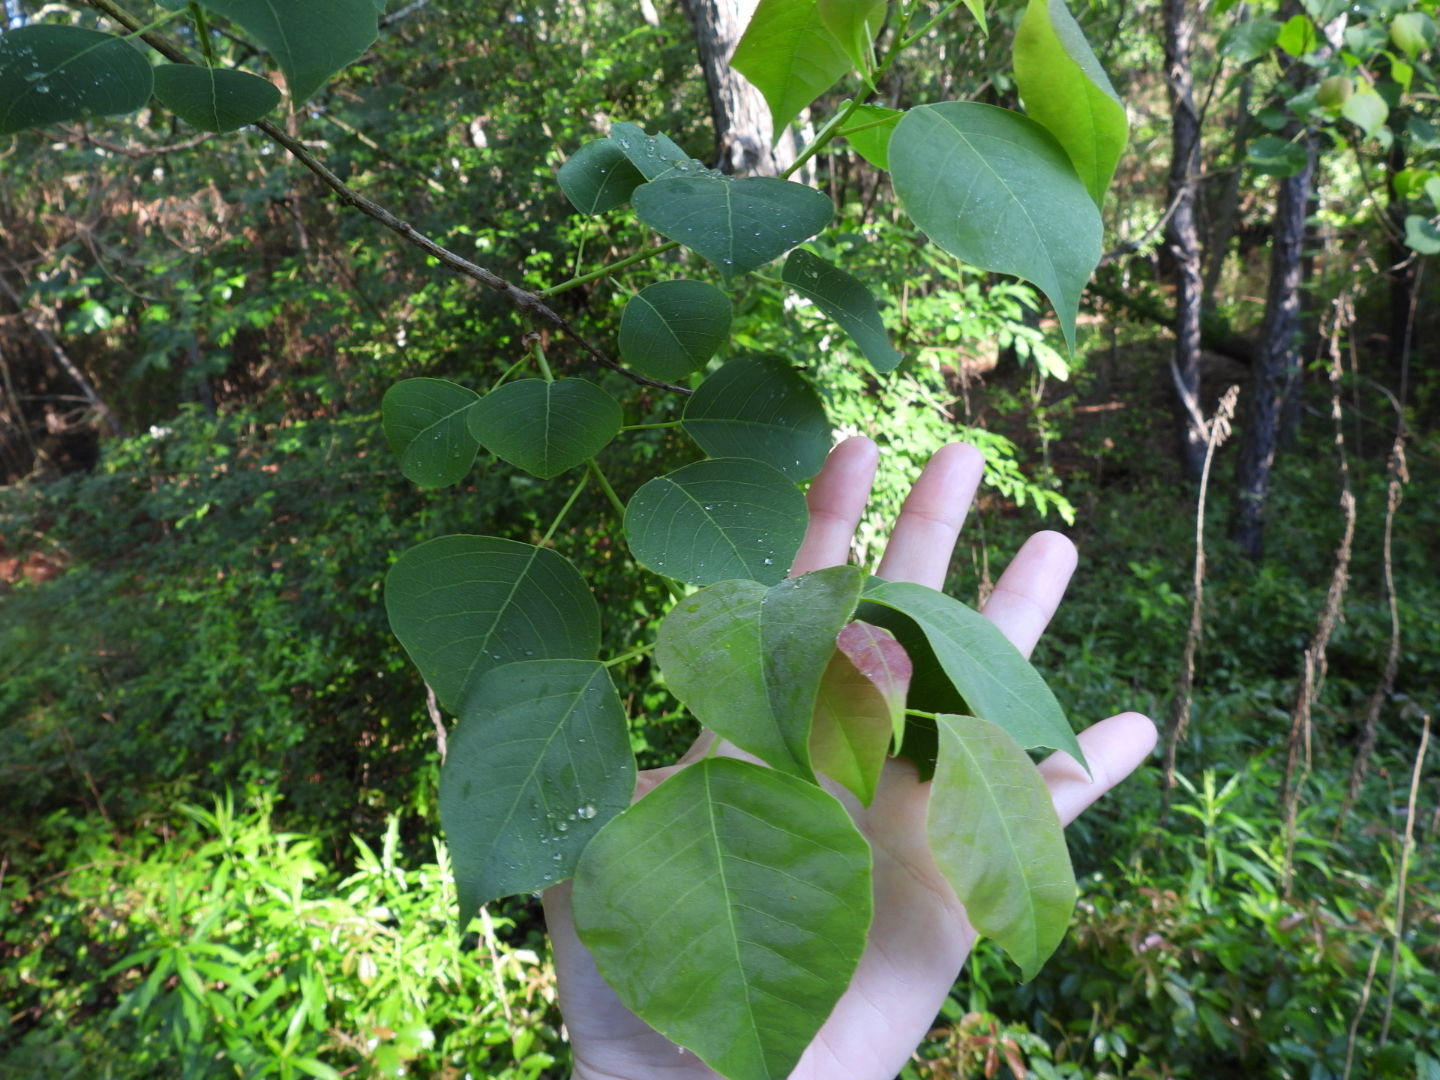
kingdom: Plantae
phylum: Tracheophyta
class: Magnoliopsida
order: Malpighiales
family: Euphorbiaceae
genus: Triadica
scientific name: Triadica sebifera
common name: Chinese tallow
